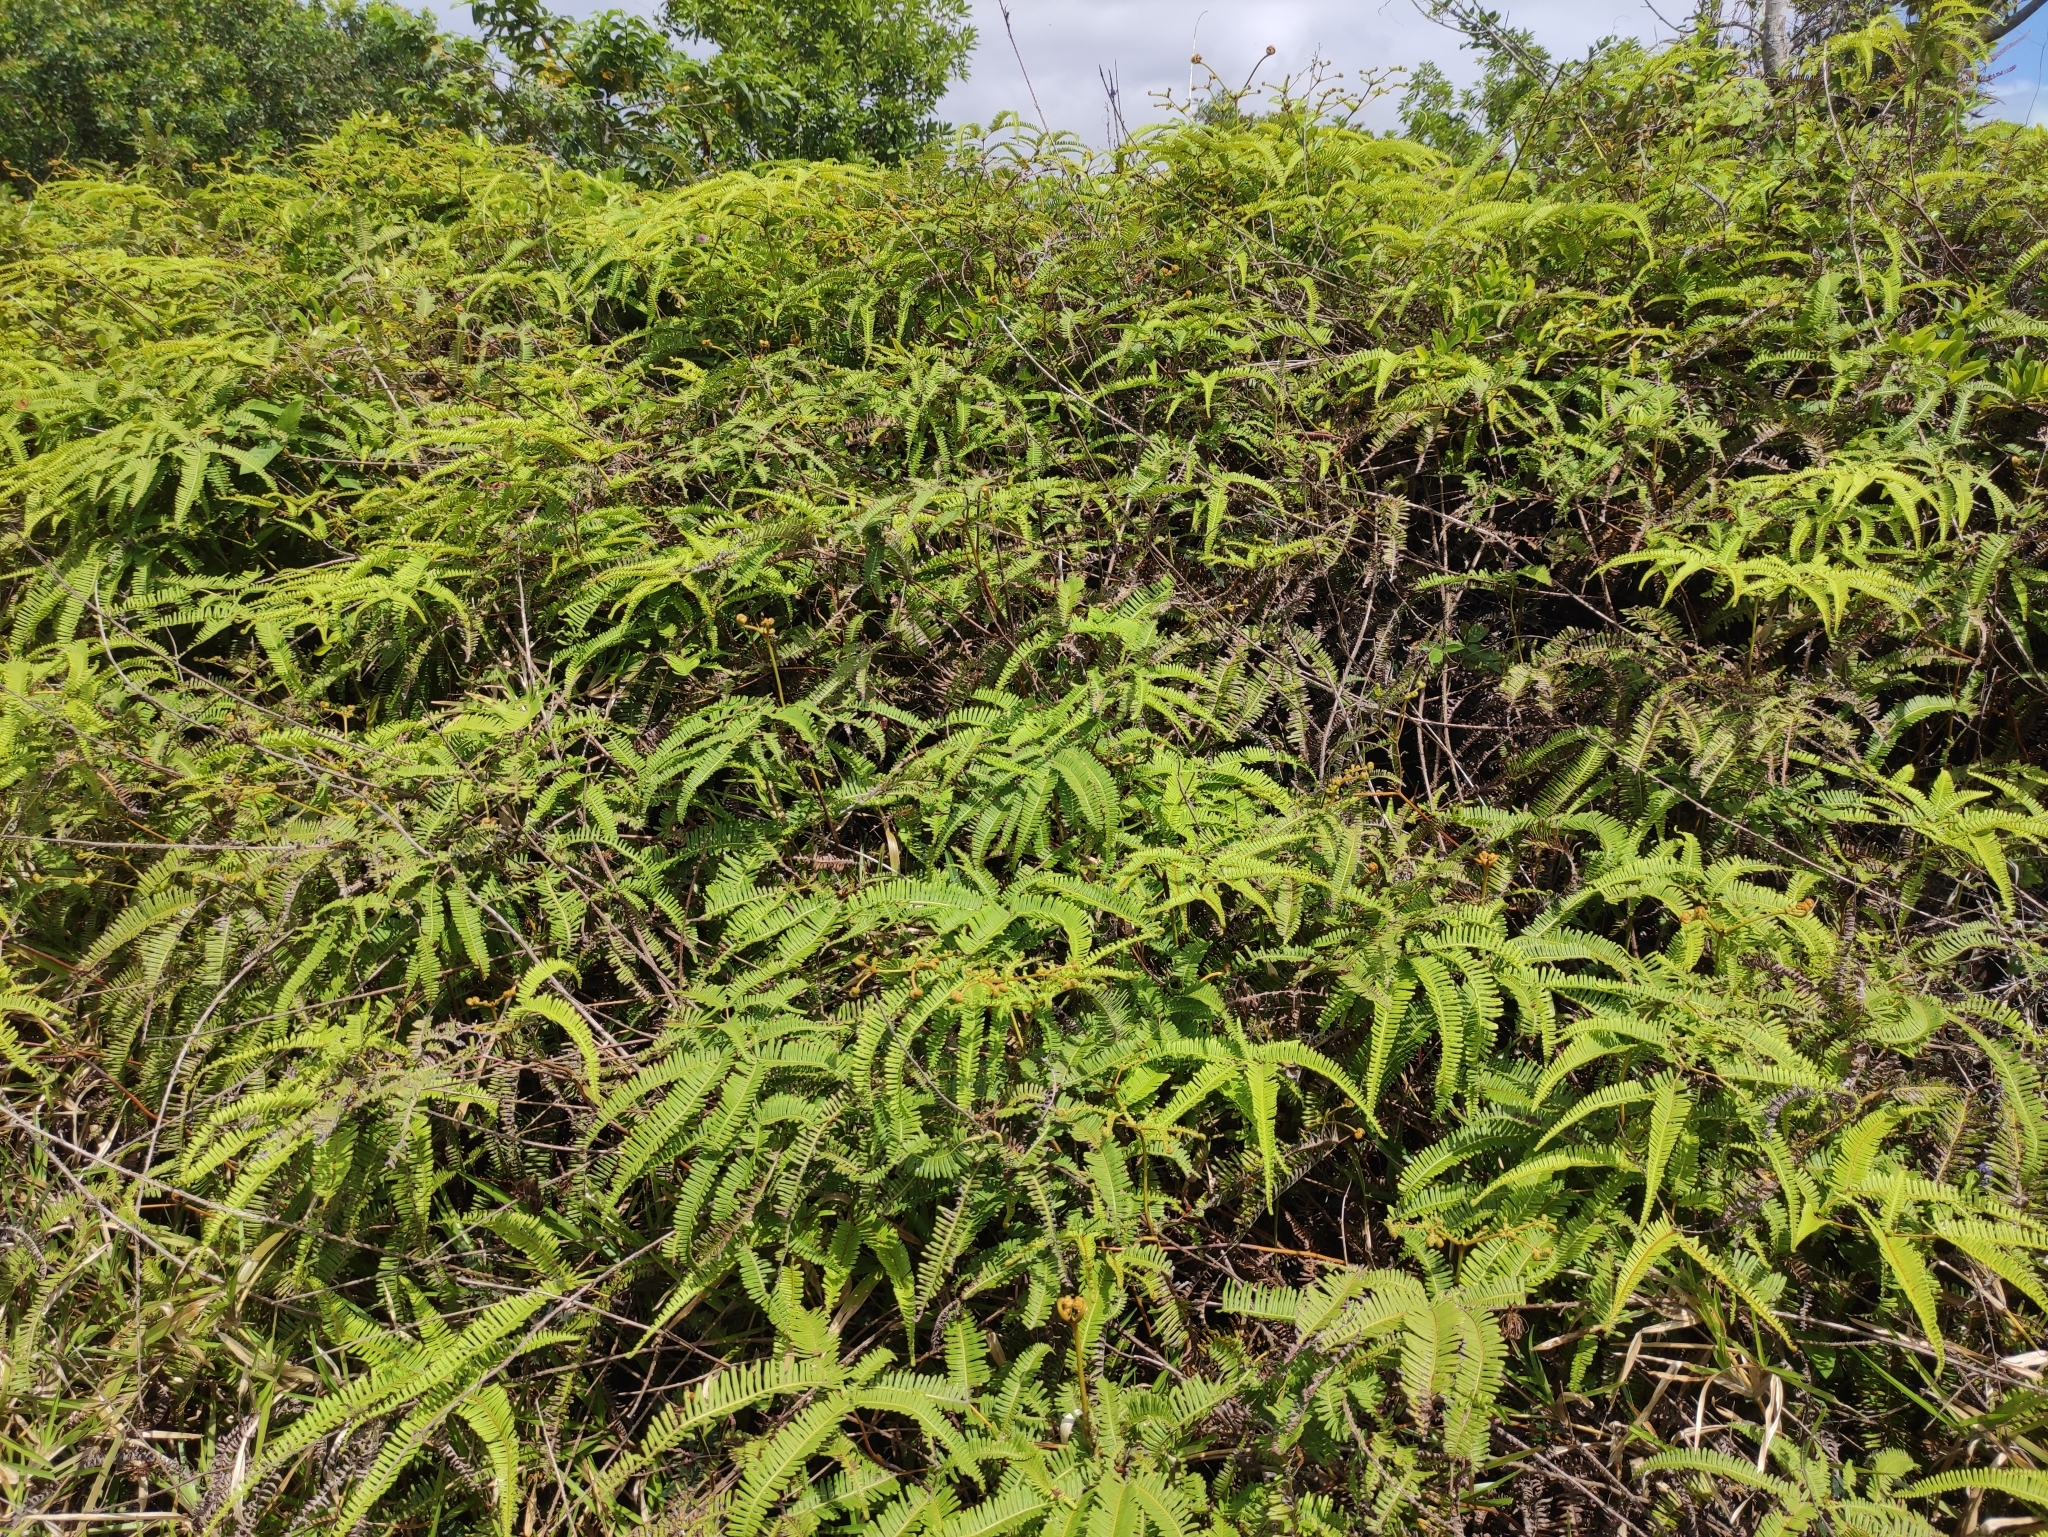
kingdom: Plantae
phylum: Tracheophyta
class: Polypodiopsida
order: Gleicheniales
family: Gleicheniaceae
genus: Dicranopteris
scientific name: Dicranopteris linearis
